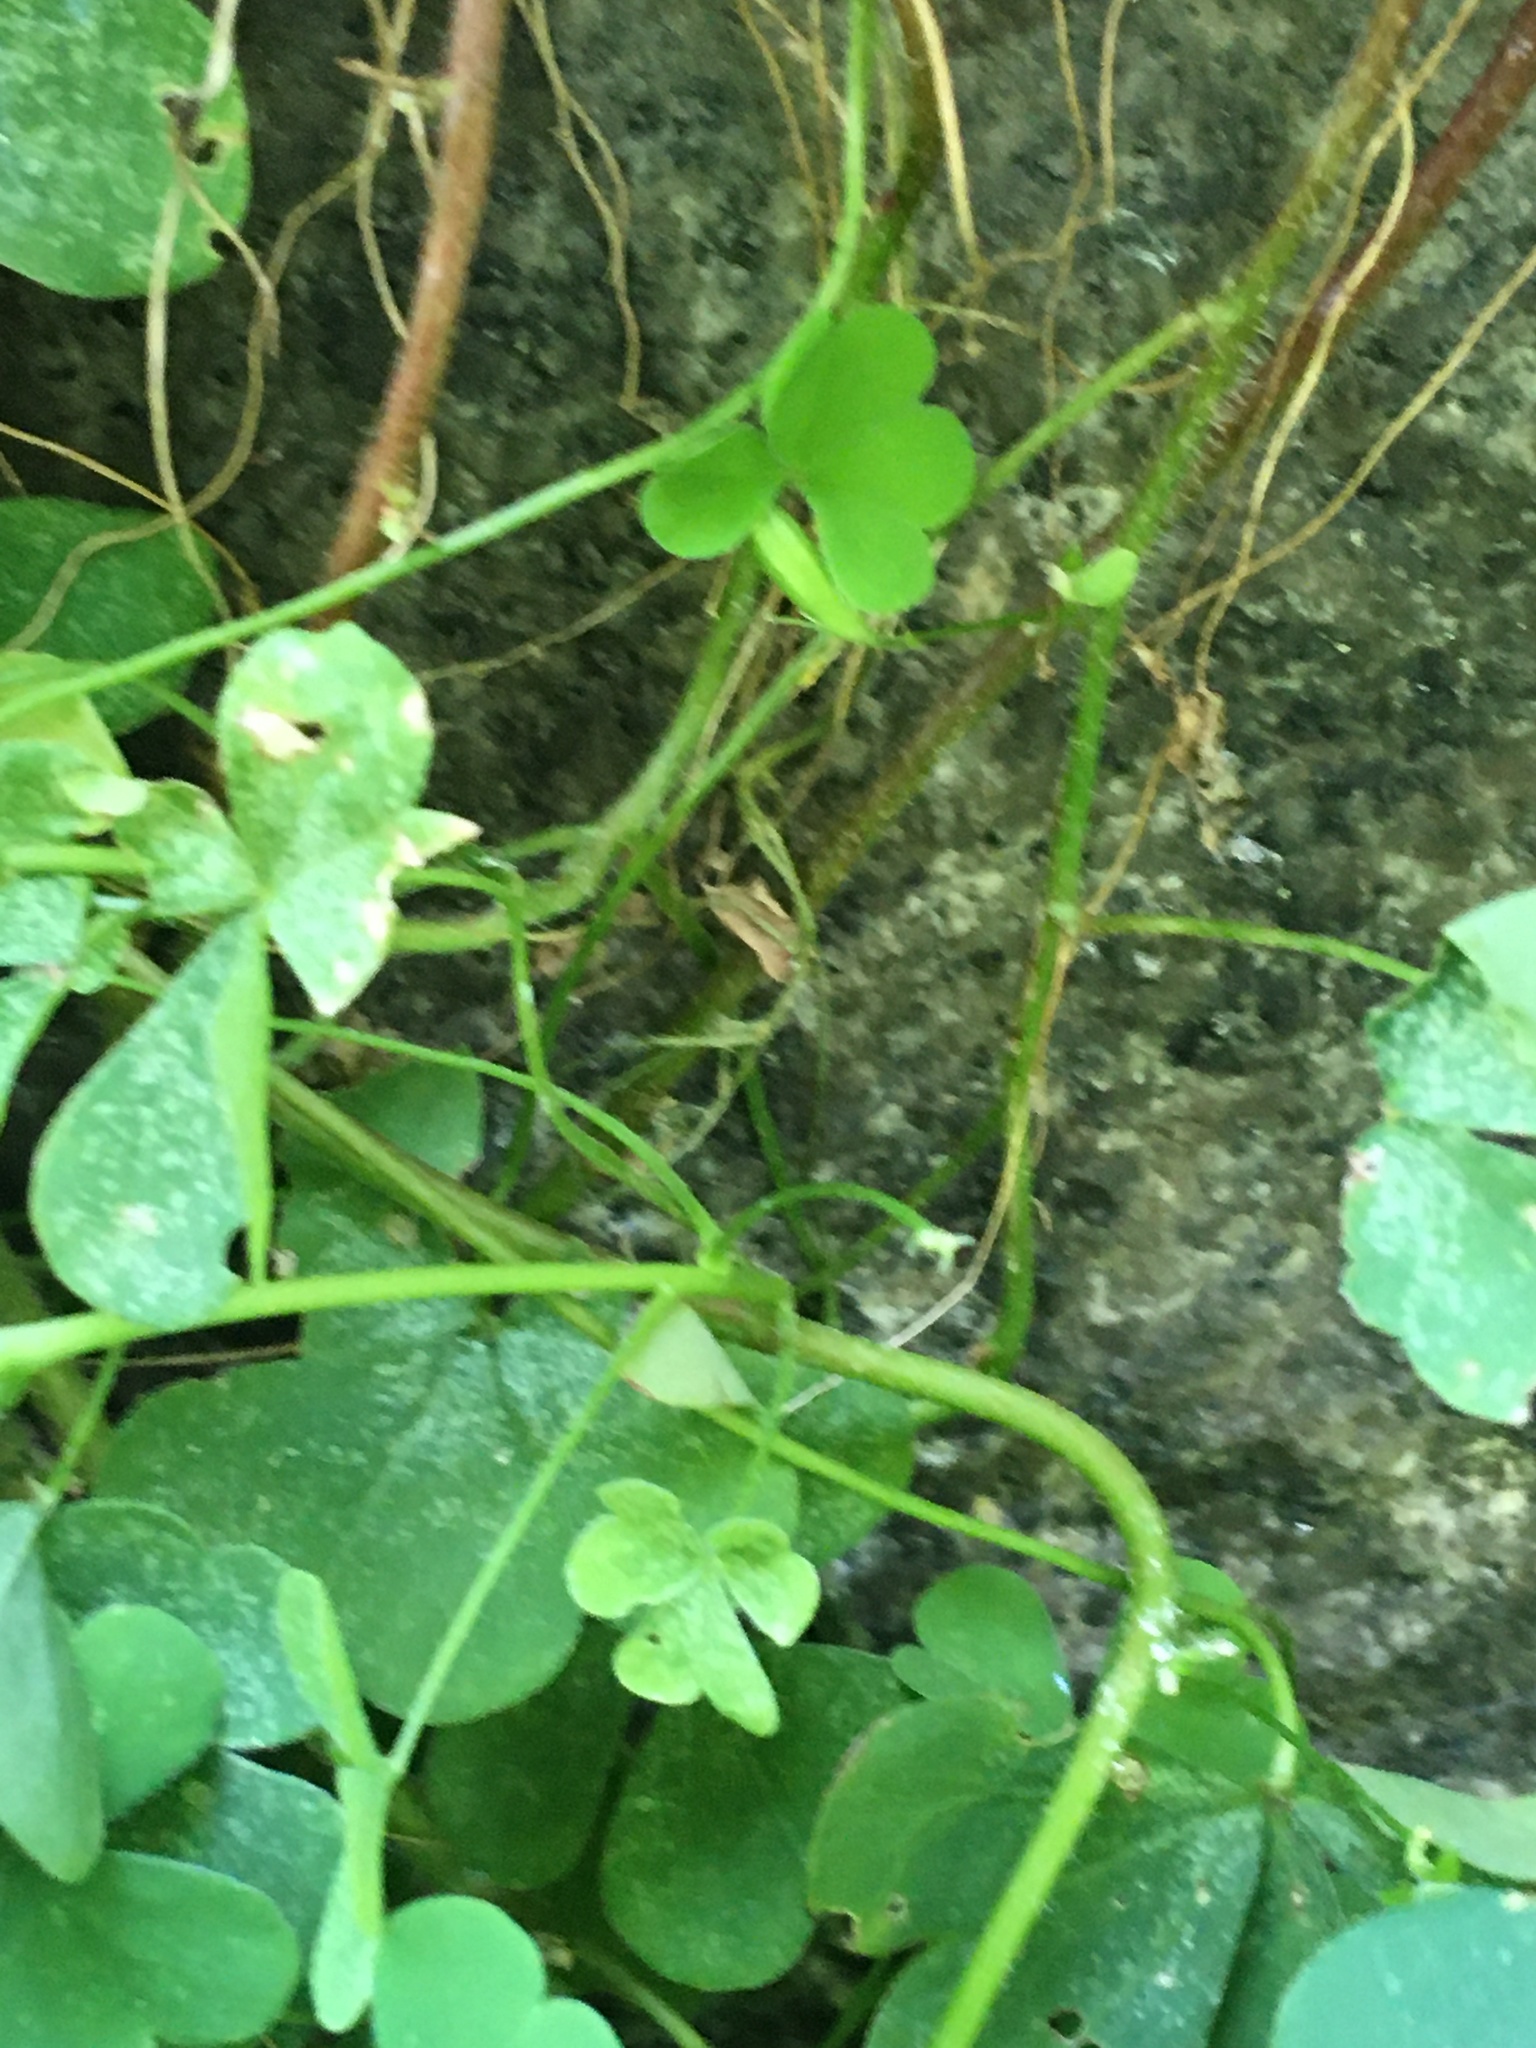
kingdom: Plantae
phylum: Tracheophyta
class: Magnoliopsida
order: Oxalidales
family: Oxalidaceae
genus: Oxalis
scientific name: Oxalis corniculata
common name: Procumbent yellow-sorrel
